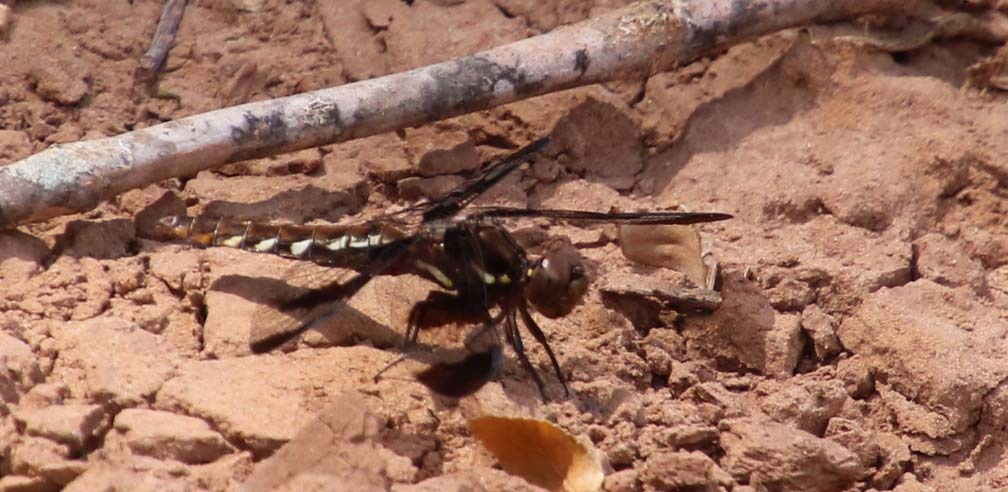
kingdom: Animalia
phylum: Arthropoda
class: Insecta
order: Odonata
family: Libellulidae
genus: Plathemis
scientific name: Plathemis lydia
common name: Common whitetail
